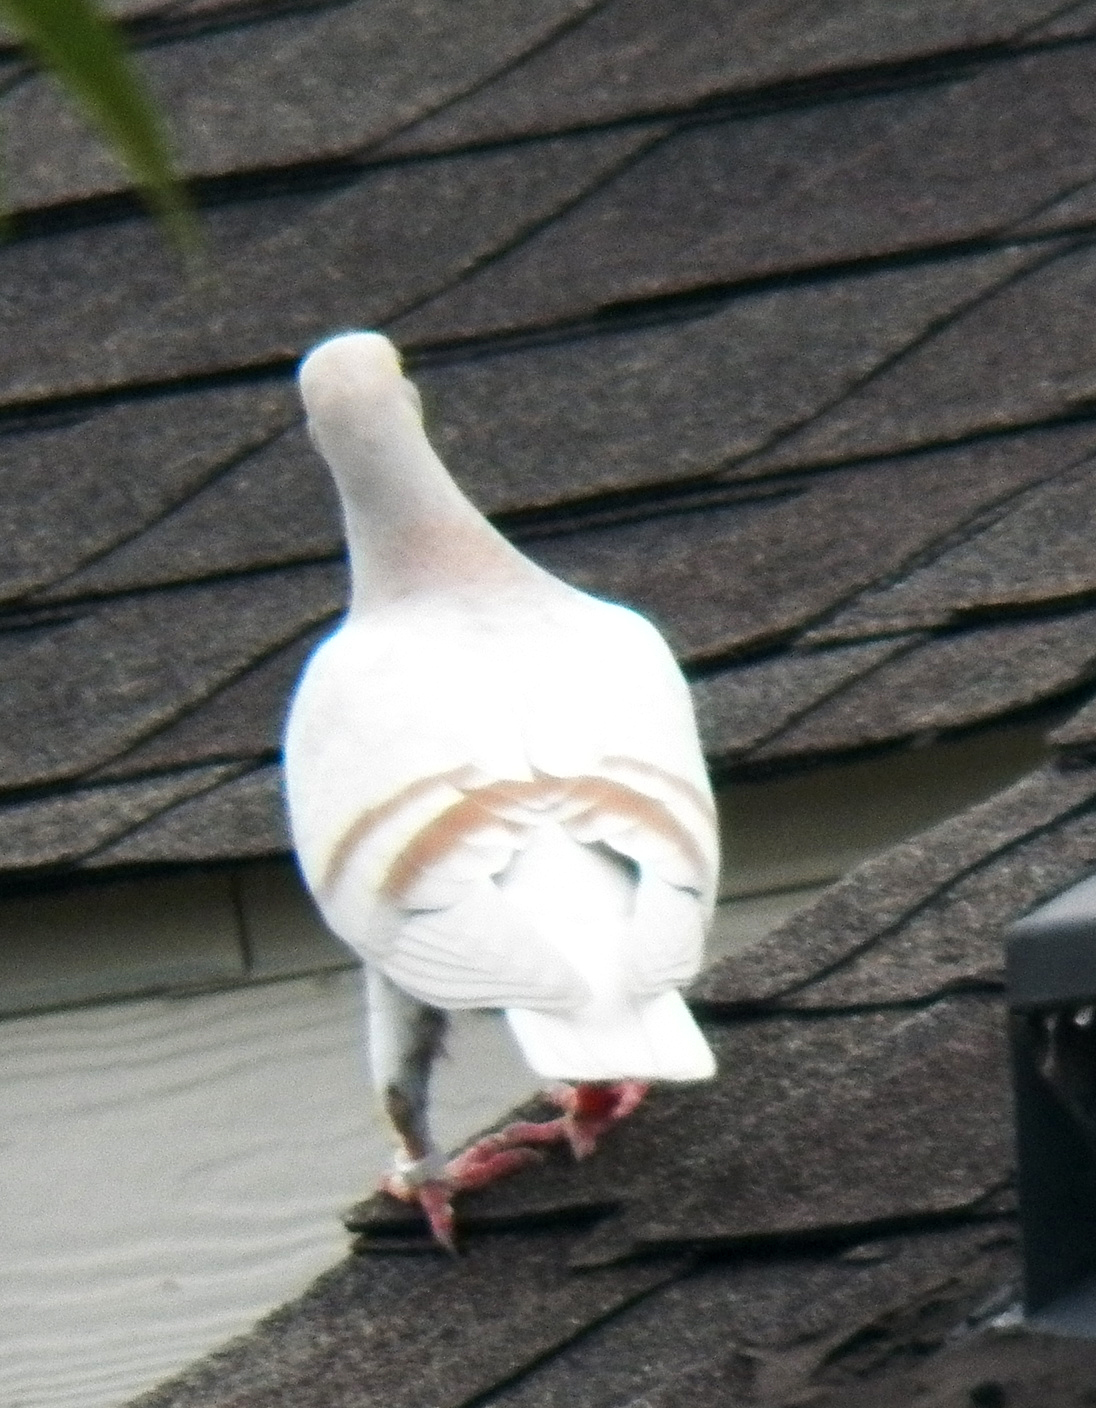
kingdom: Animalia
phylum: Chordata
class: Aves
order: Columbiformes
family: Columbidae
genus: Columba
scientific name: Columba livia
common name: Rock pigeon
